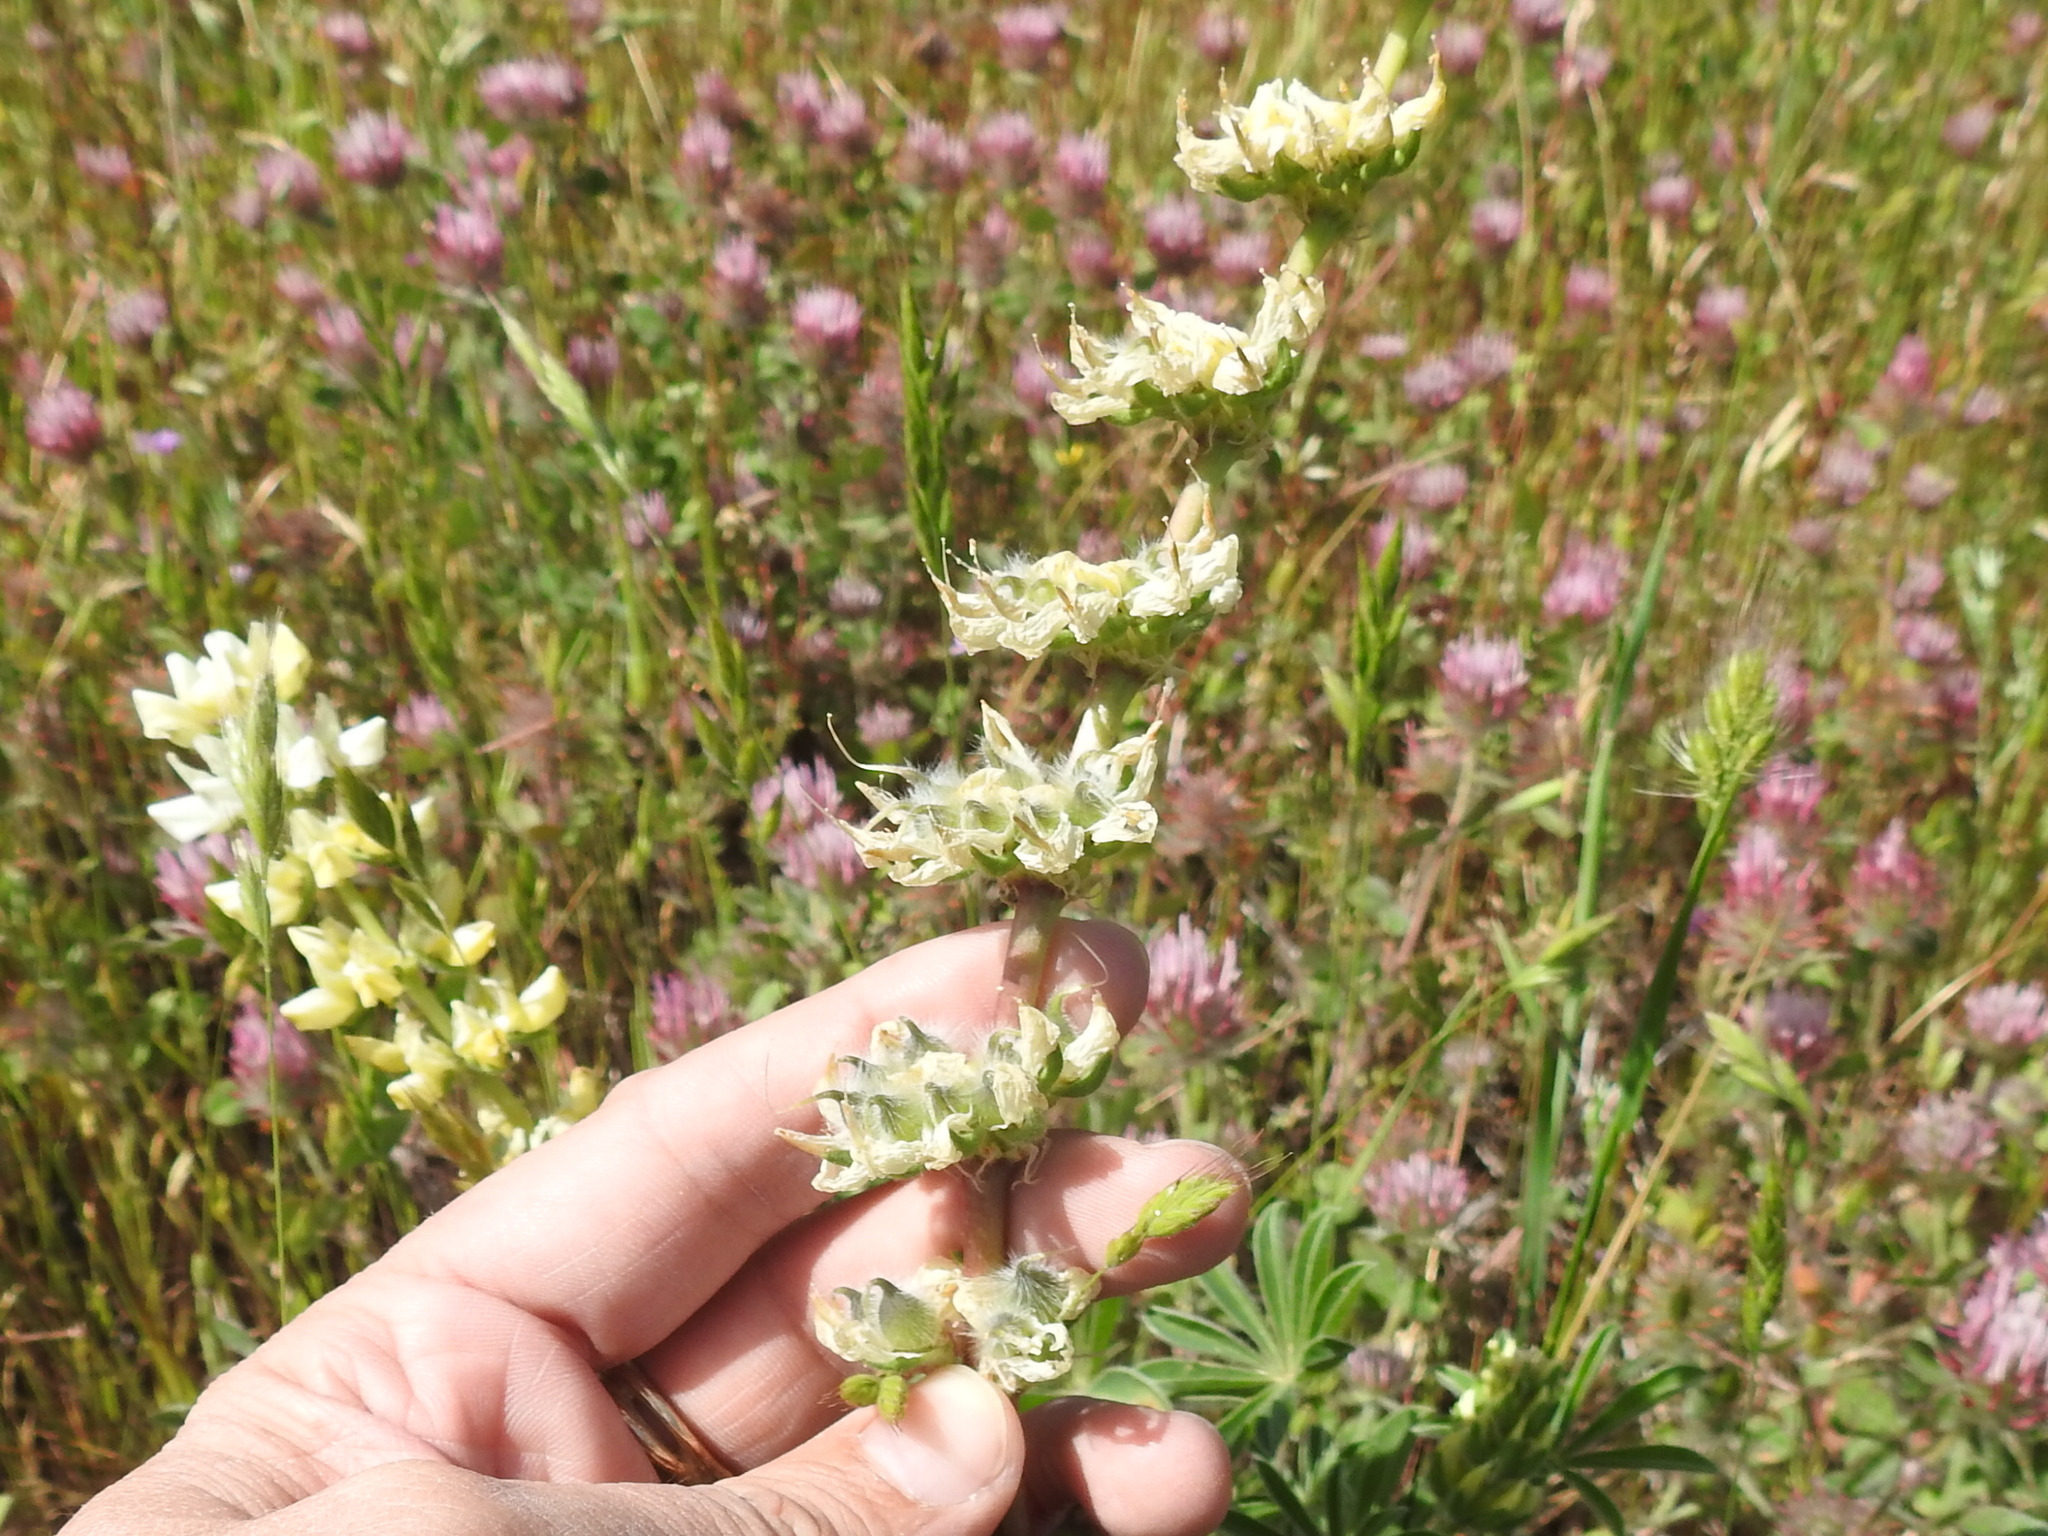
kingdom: Plantae
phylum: Tracheophyta
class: Magnoliopsida
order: Fabales
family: Fabaceae
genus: Lupinus
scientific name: Lupinus microcarpus
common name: Chick lupine
